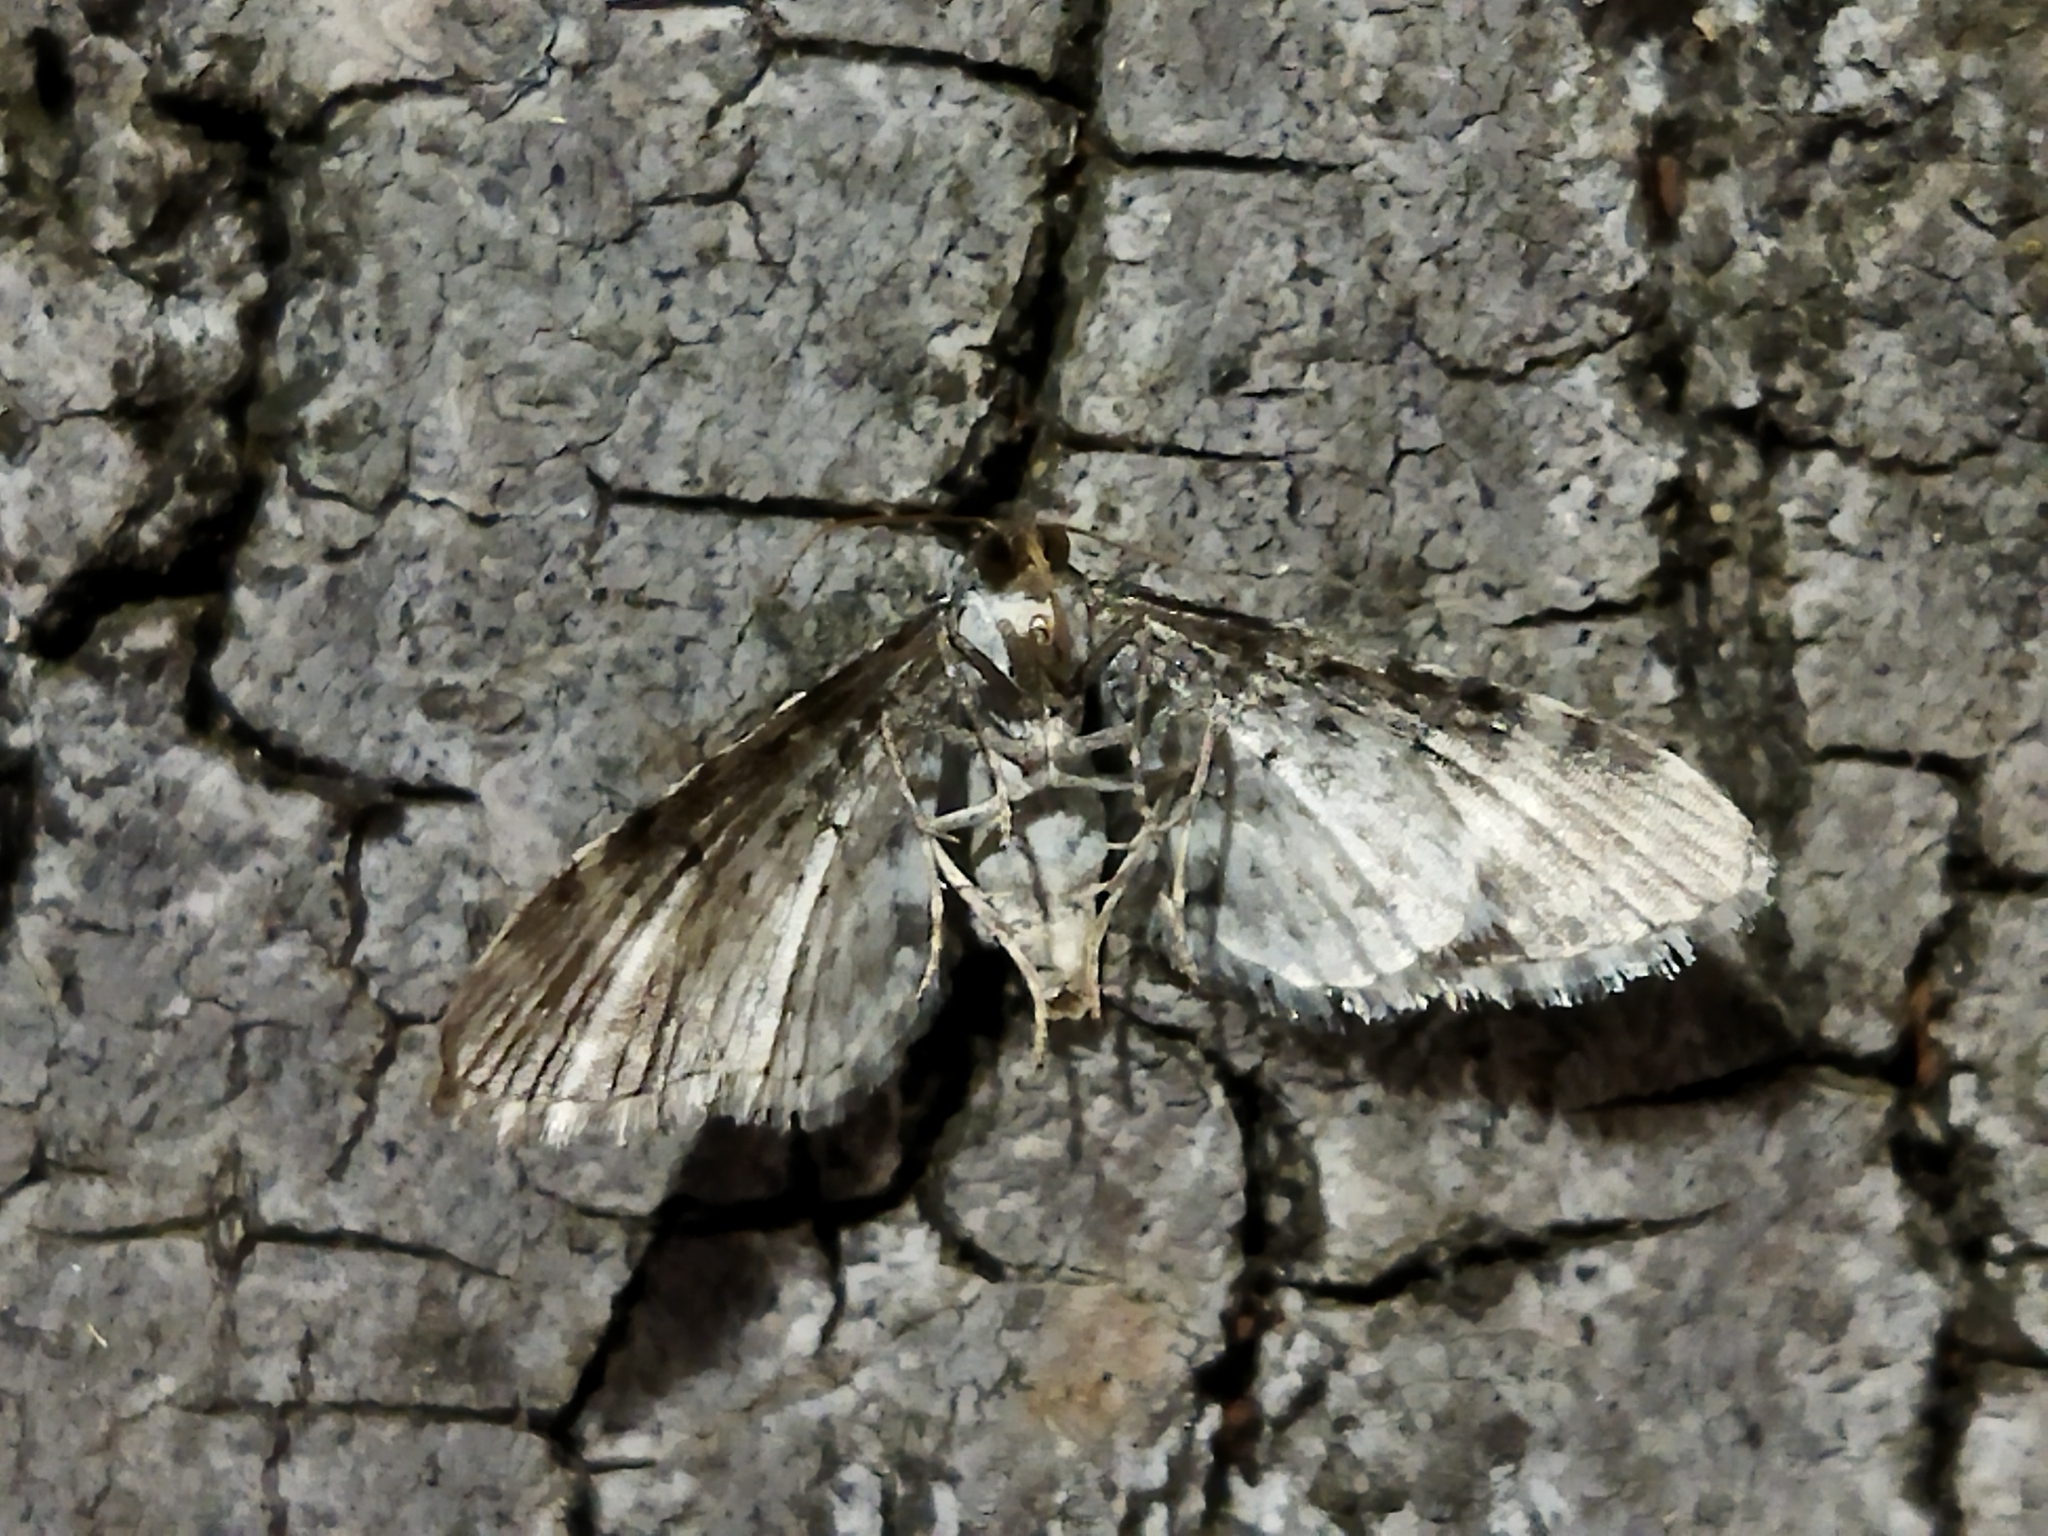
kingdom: Animalia
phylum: Arthropoda
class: Insecta
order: Lepidoptera
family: Geometridae
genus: Eupithecia
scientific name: Eupithecia centaureata
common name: Lime-speck pug
